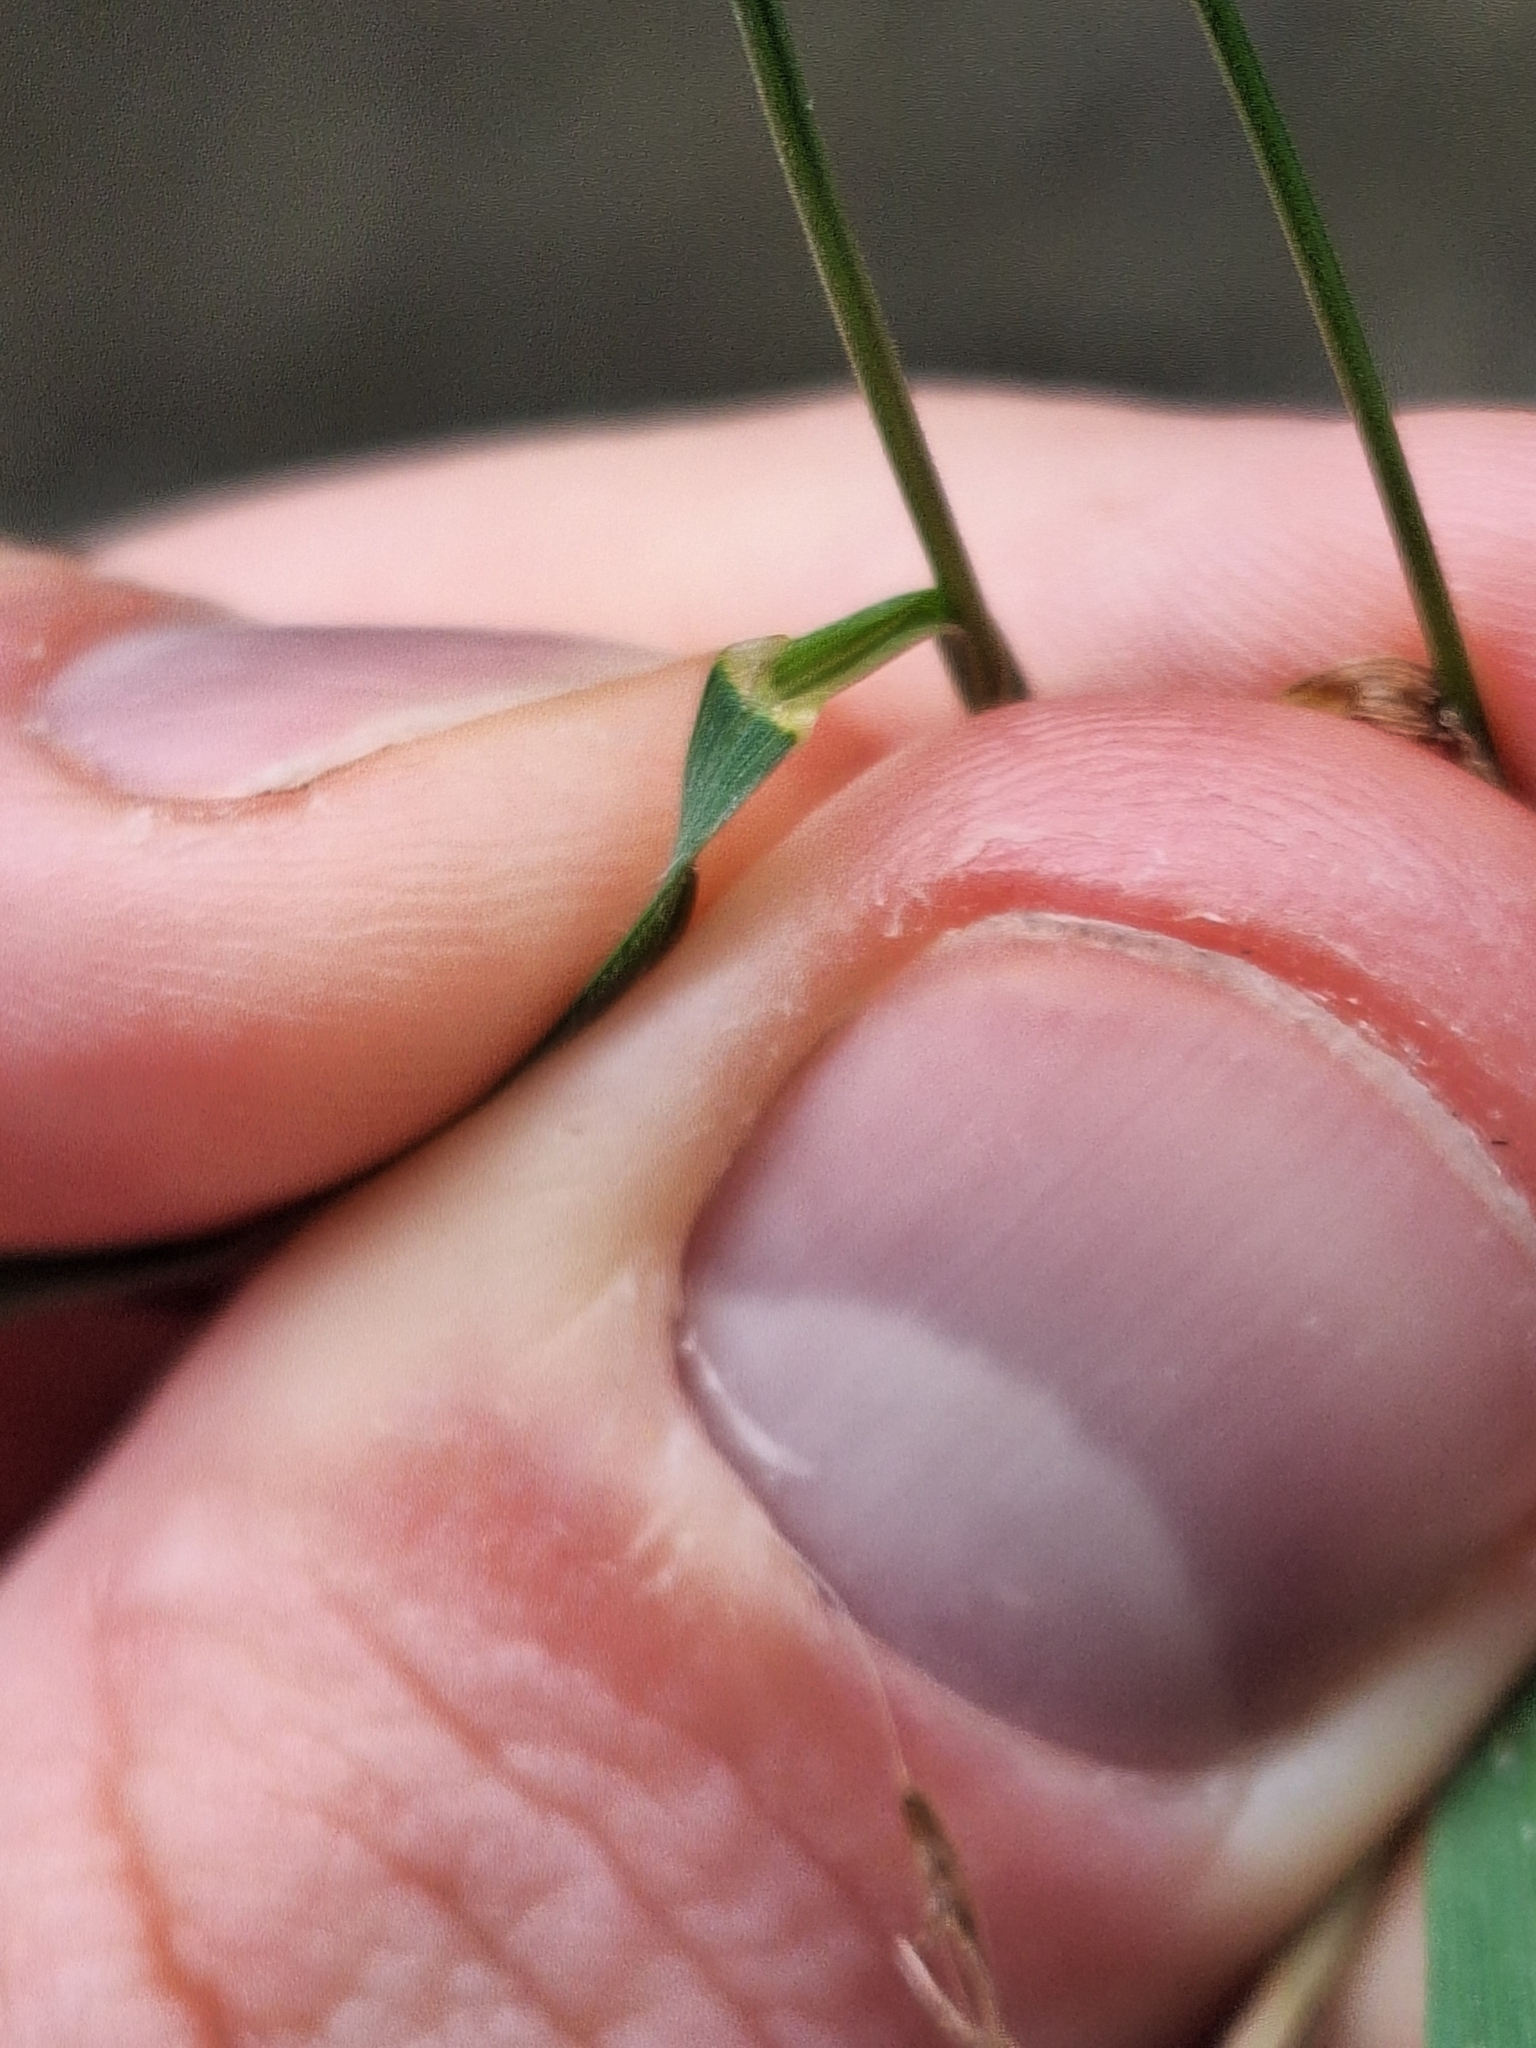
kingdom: Plantae
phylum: Tracheophyta
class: Liliopsida
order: Poales
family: Poaceae
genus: Bromus
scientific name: Bromus hordeaceus
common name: Soft brome
